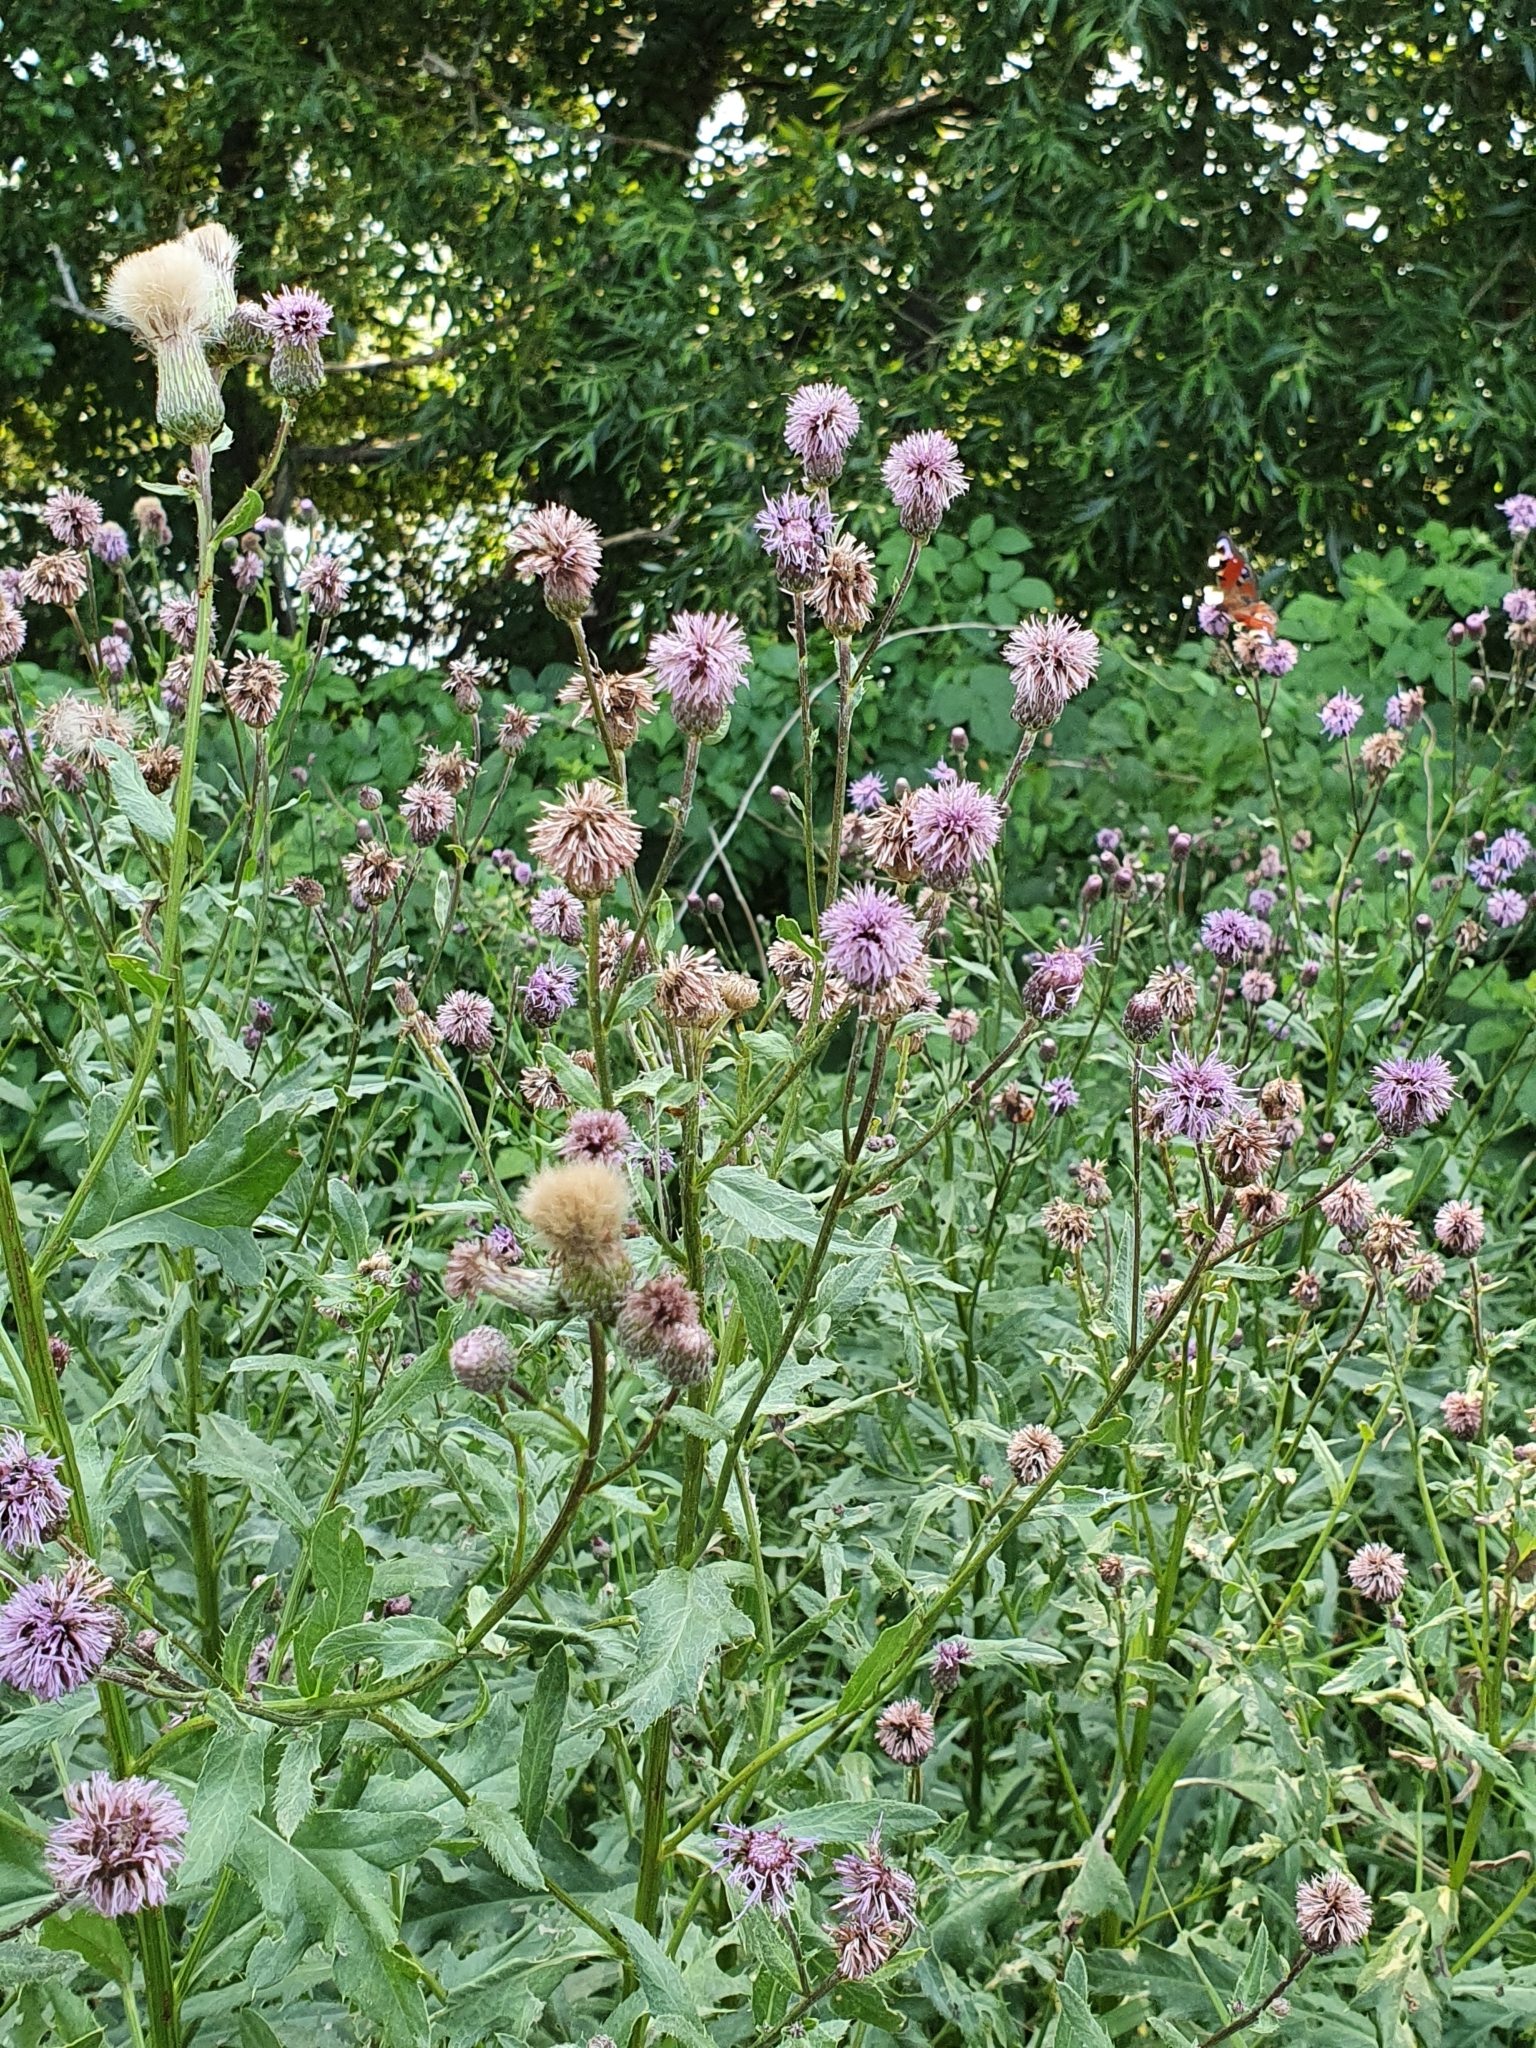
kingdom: Plantae
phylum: Tracheophyta
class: Magnoliopsida
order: Asterales
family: Asteraceae
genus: Cirsium
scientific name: Cirsium arvense
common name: Creeping thistle
